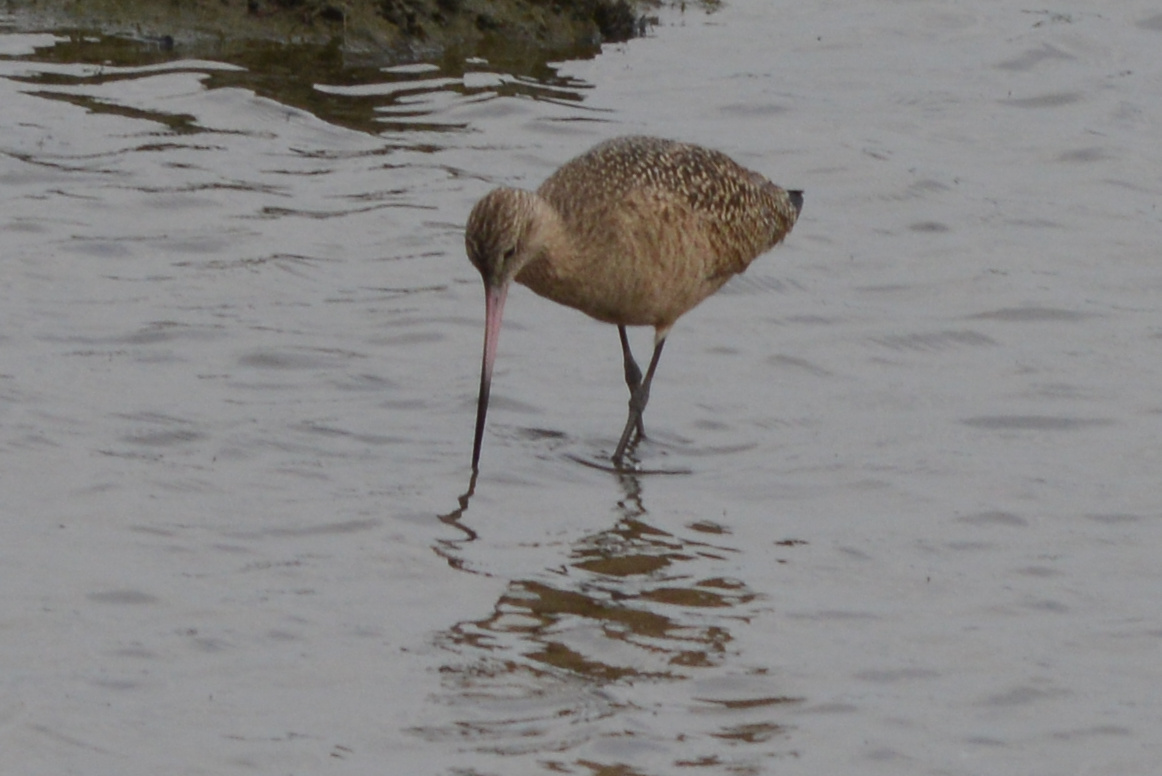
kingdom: Animalia
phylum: Chordata
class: Aves
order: Charadriiformes
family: Scolopacidae
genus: Limosa
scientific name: Limosa fedoa
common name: Marbled godwit
